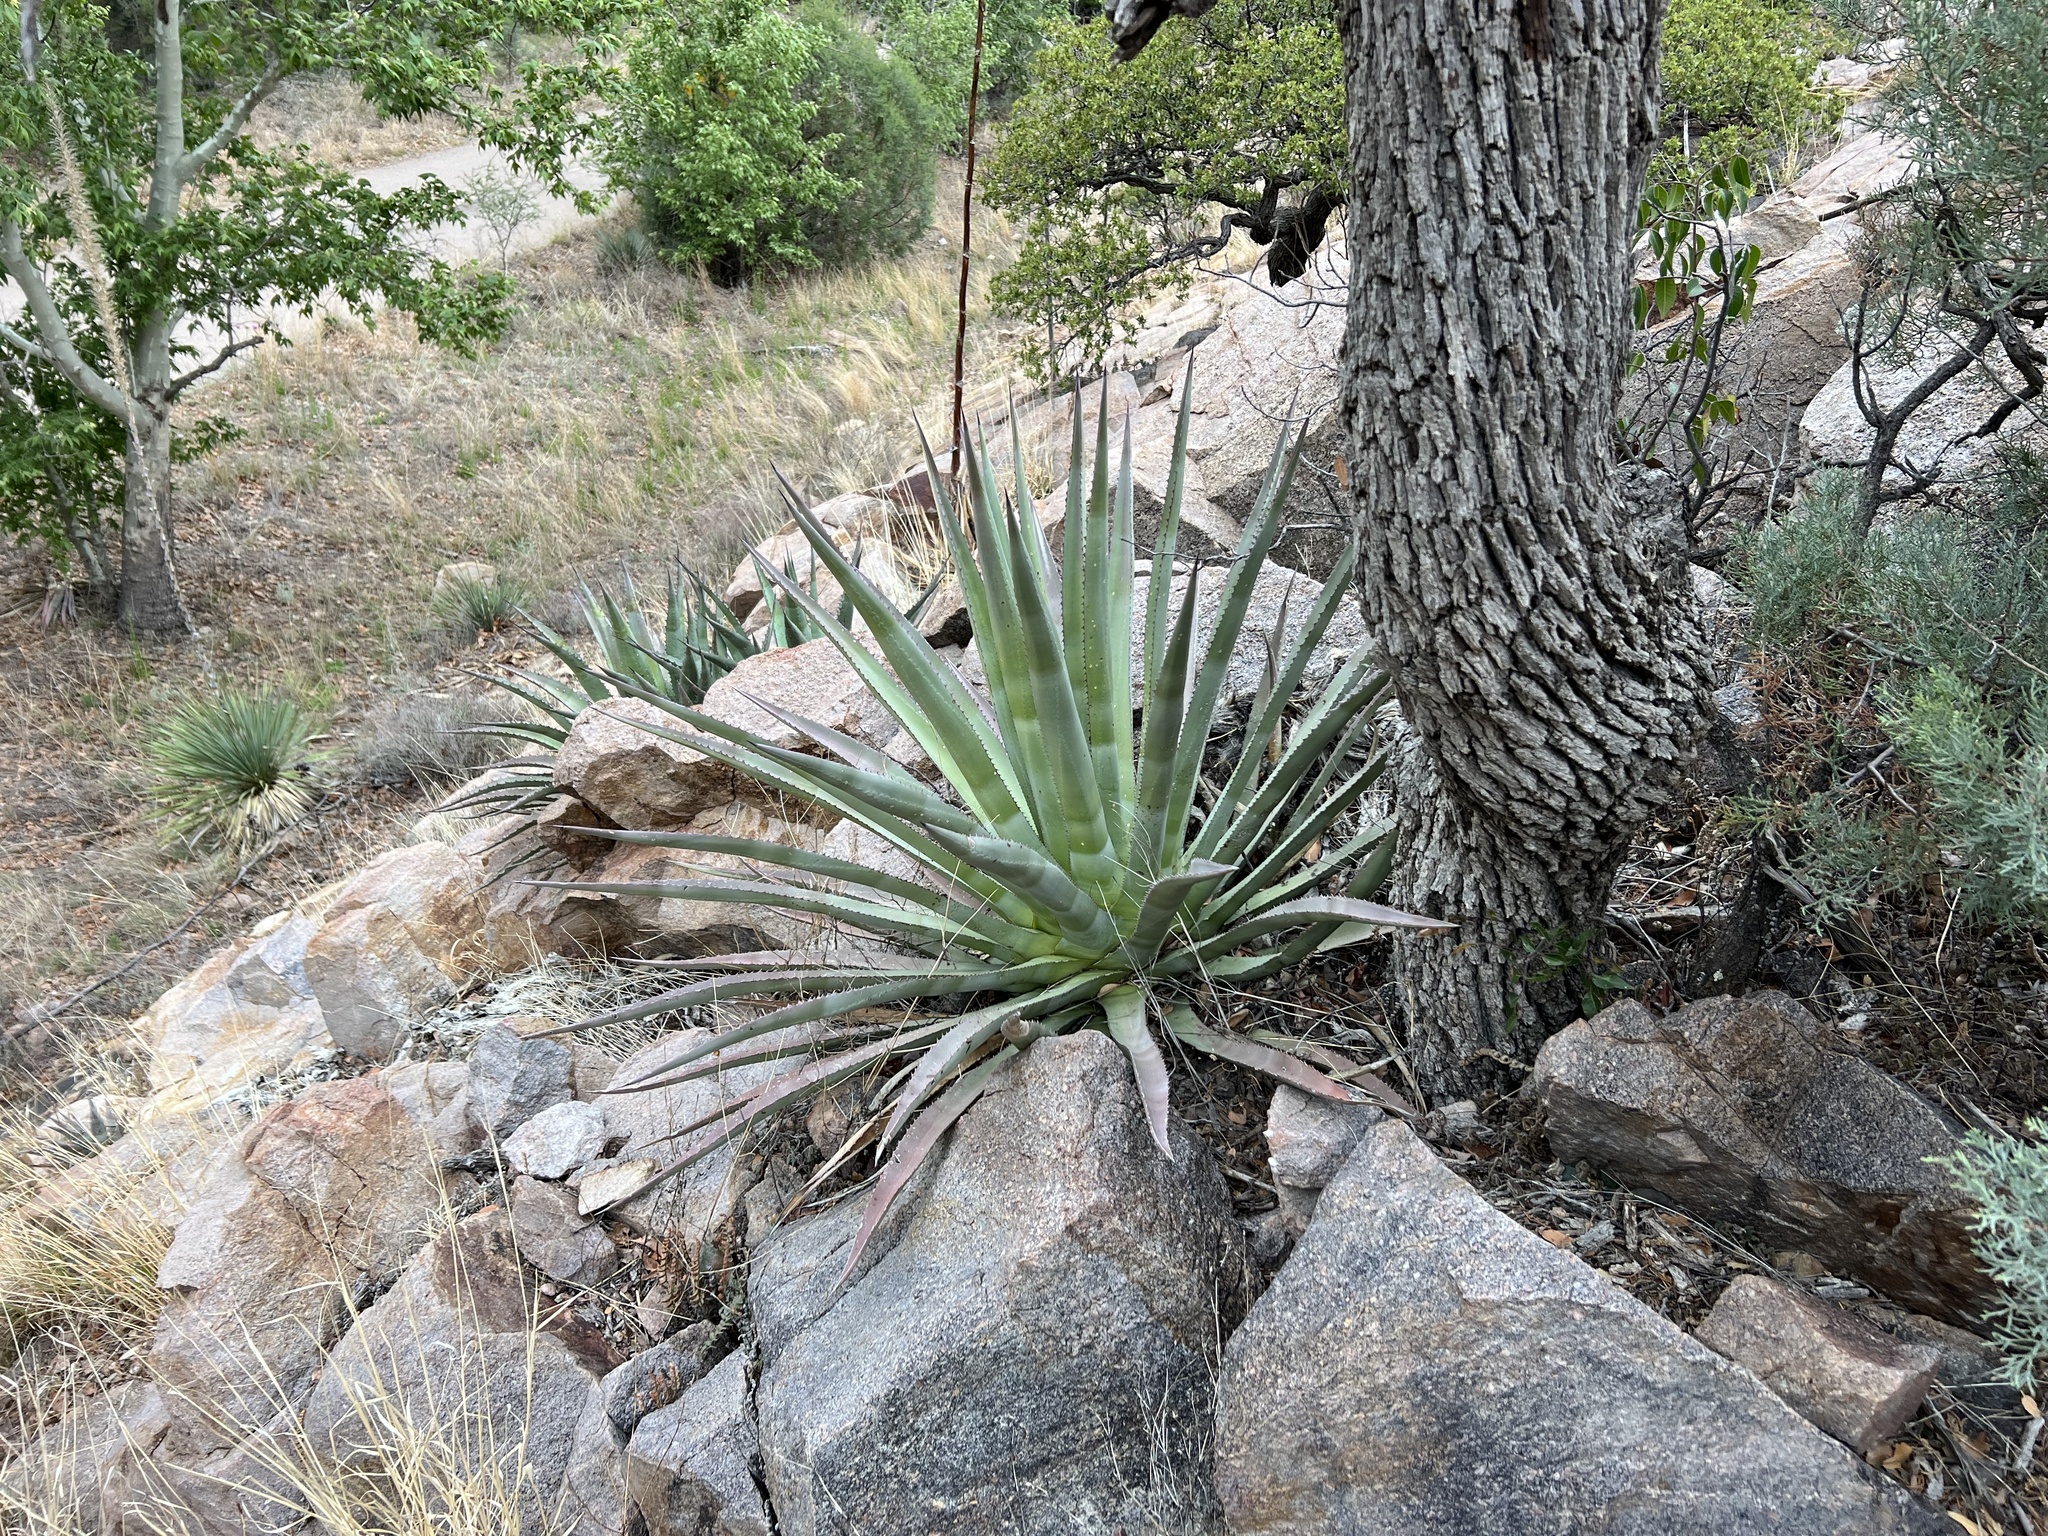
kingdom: Plantae
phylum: Tracheophyta
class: Liliopsida
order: Asparagales
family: Asparagaceae
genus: Agave
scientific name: Agave palmeri
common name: Palmer agave
